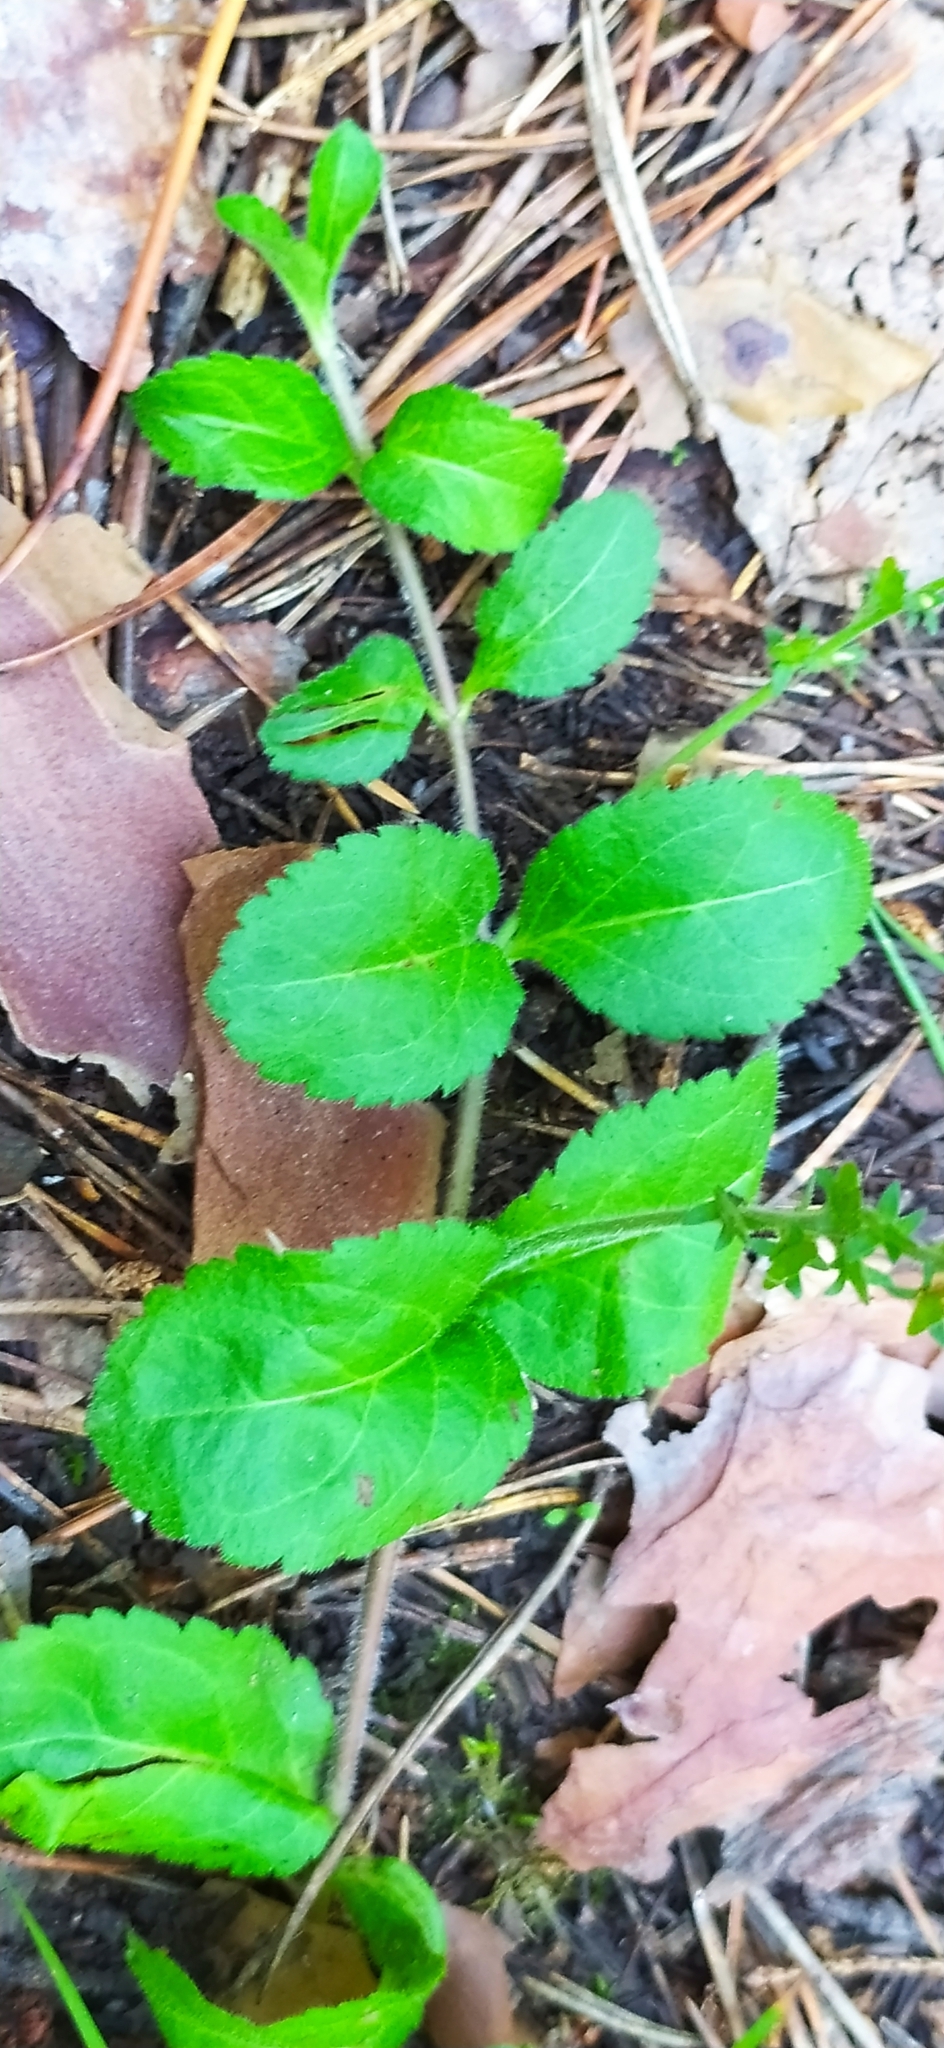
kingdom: Plantae
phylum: Tracheophyta
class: Magnoliopsida
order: Lamiales
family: Plantaginaceae
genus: Veronica
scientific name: Veronica officinalis
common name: Common speedwell
